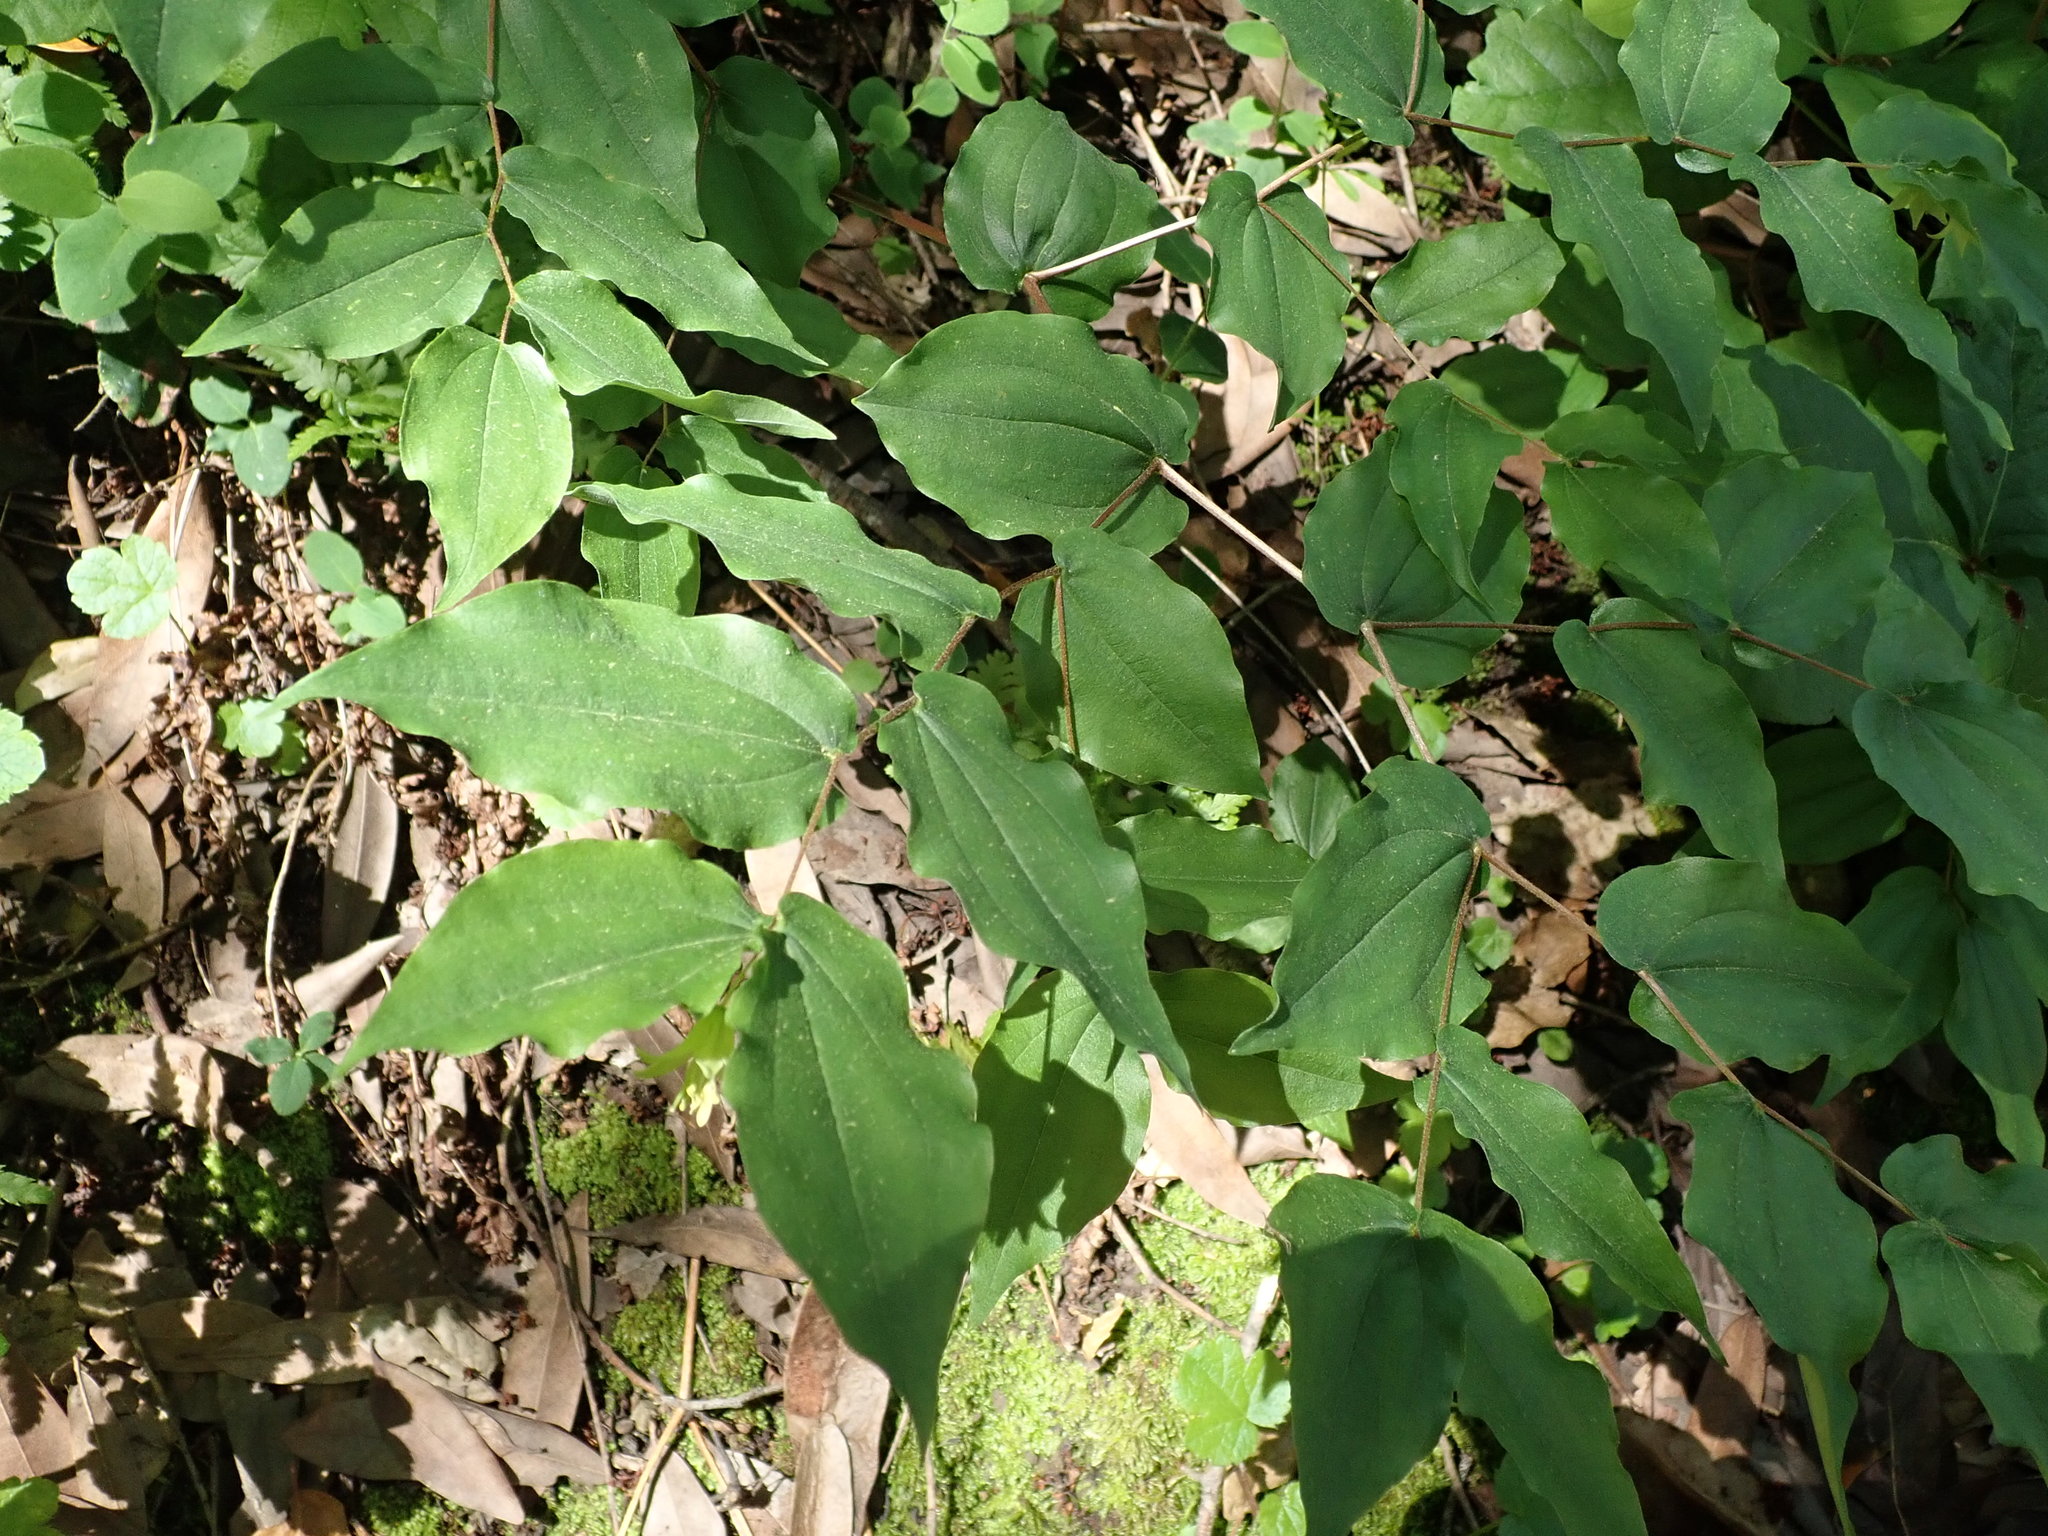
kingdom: Plantae
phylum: Tracheophyta
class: Liliopsida
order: Liliales
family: Liliaceae
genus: Prosartes
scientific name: Prosartes hookeri
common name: Fairy-bells
